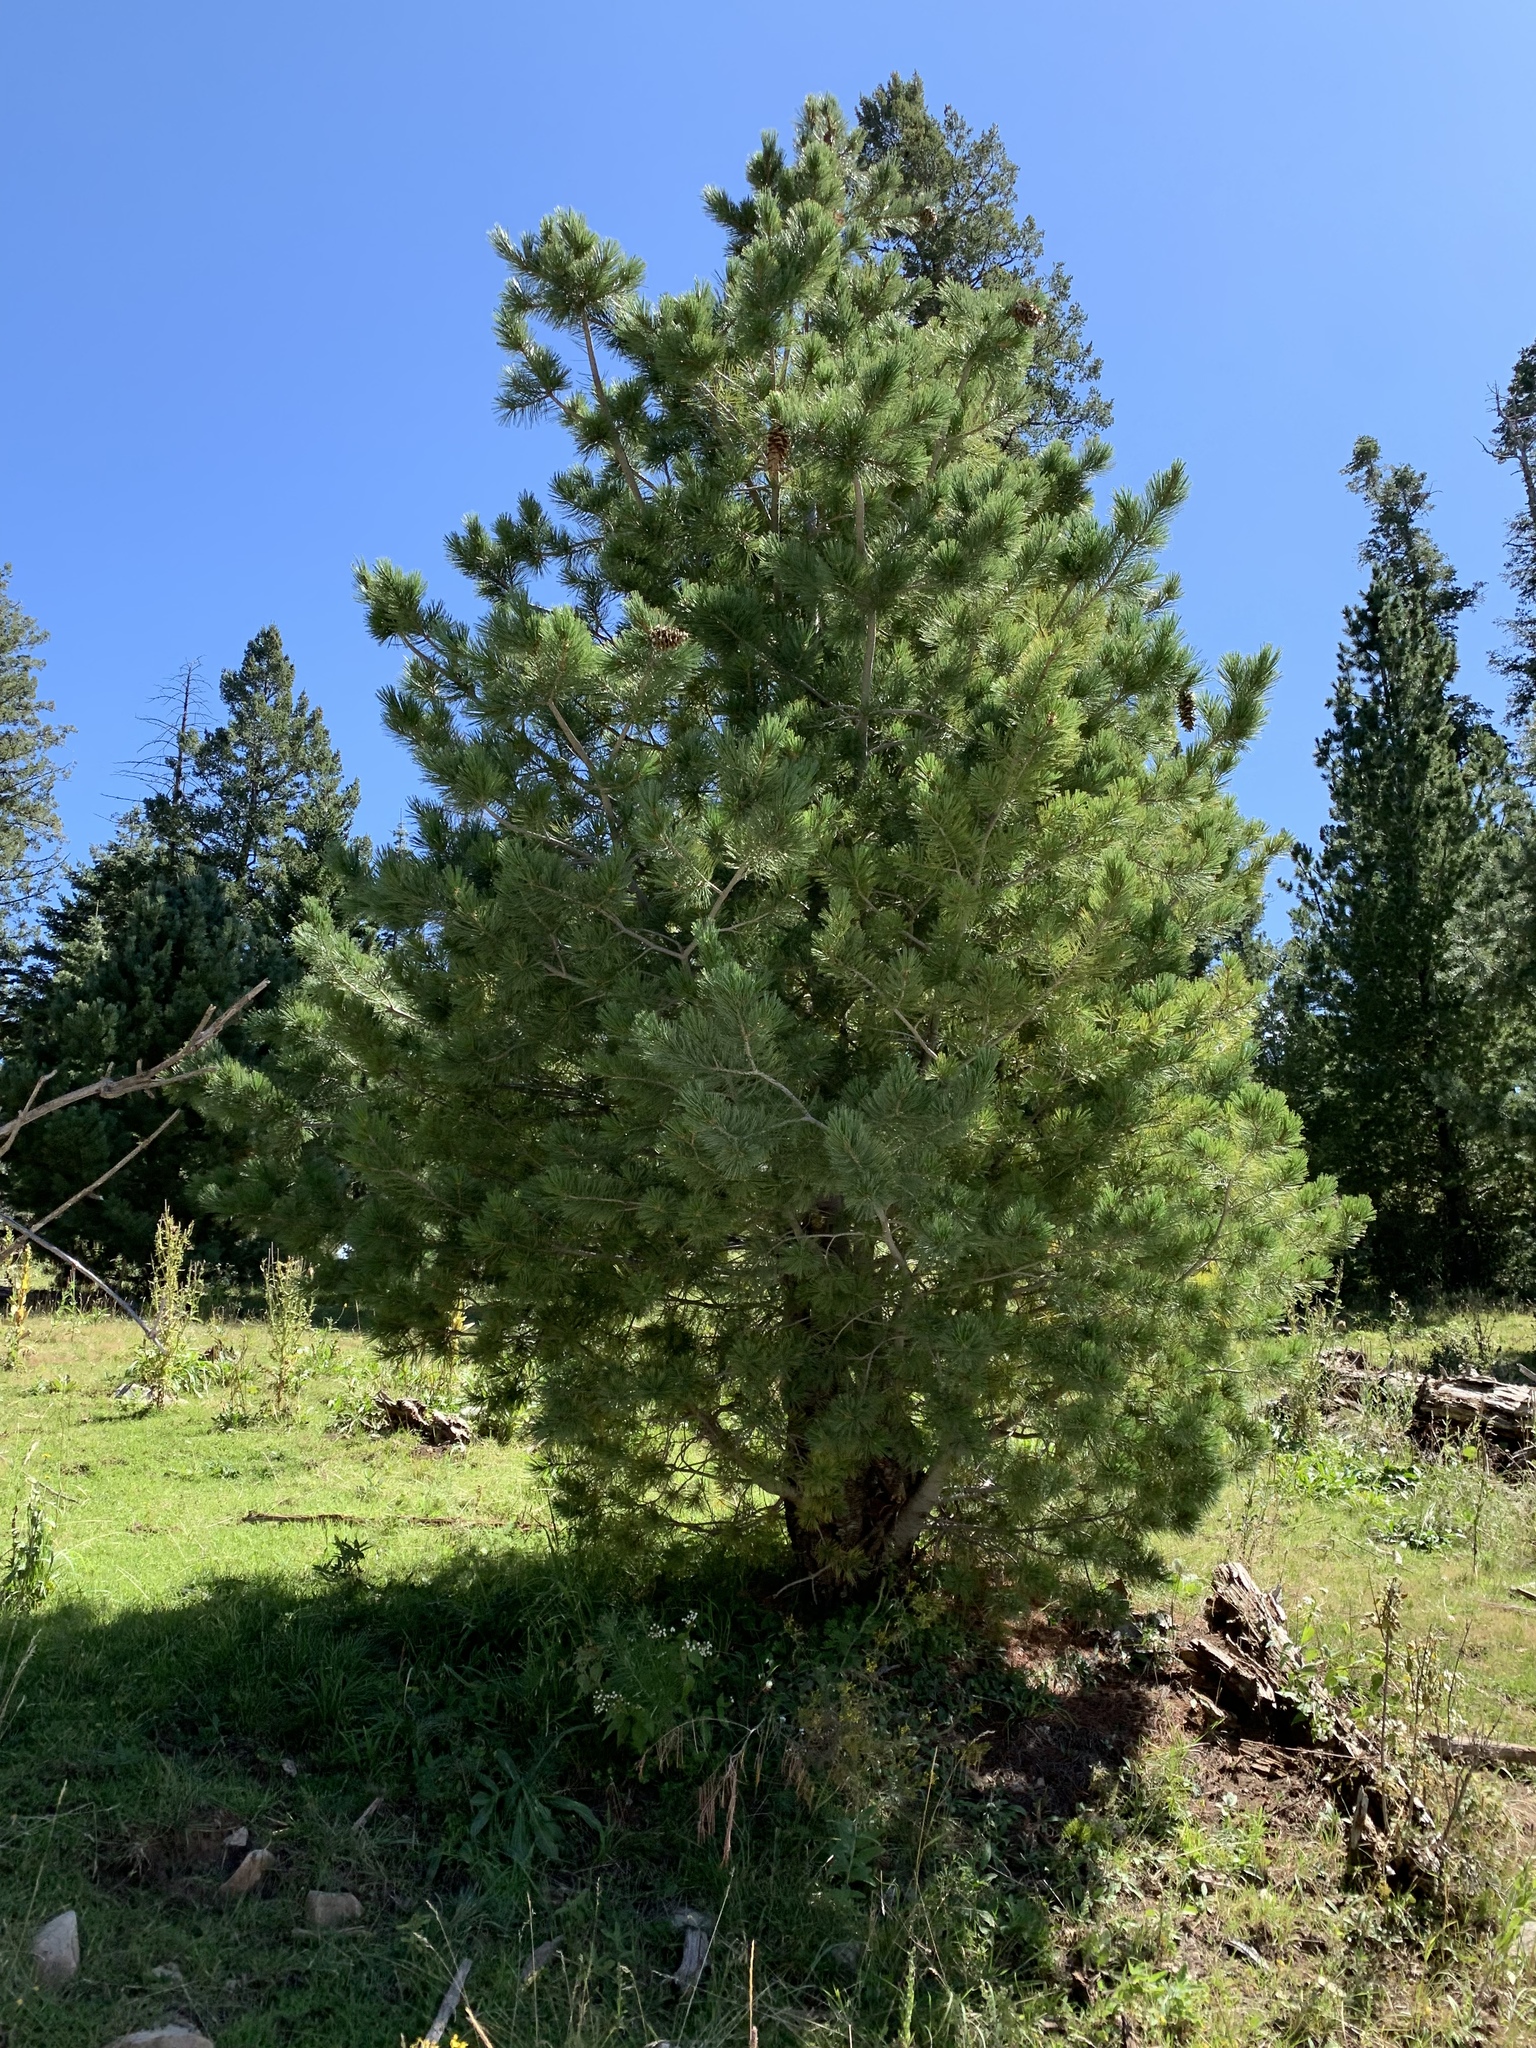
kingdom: Plantae
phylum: Tracheophyta
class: Pinopsida
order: Pinales
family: Pinaceae
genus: Pinus
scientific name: Pinus strobiformis
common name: Southwestern white pine
